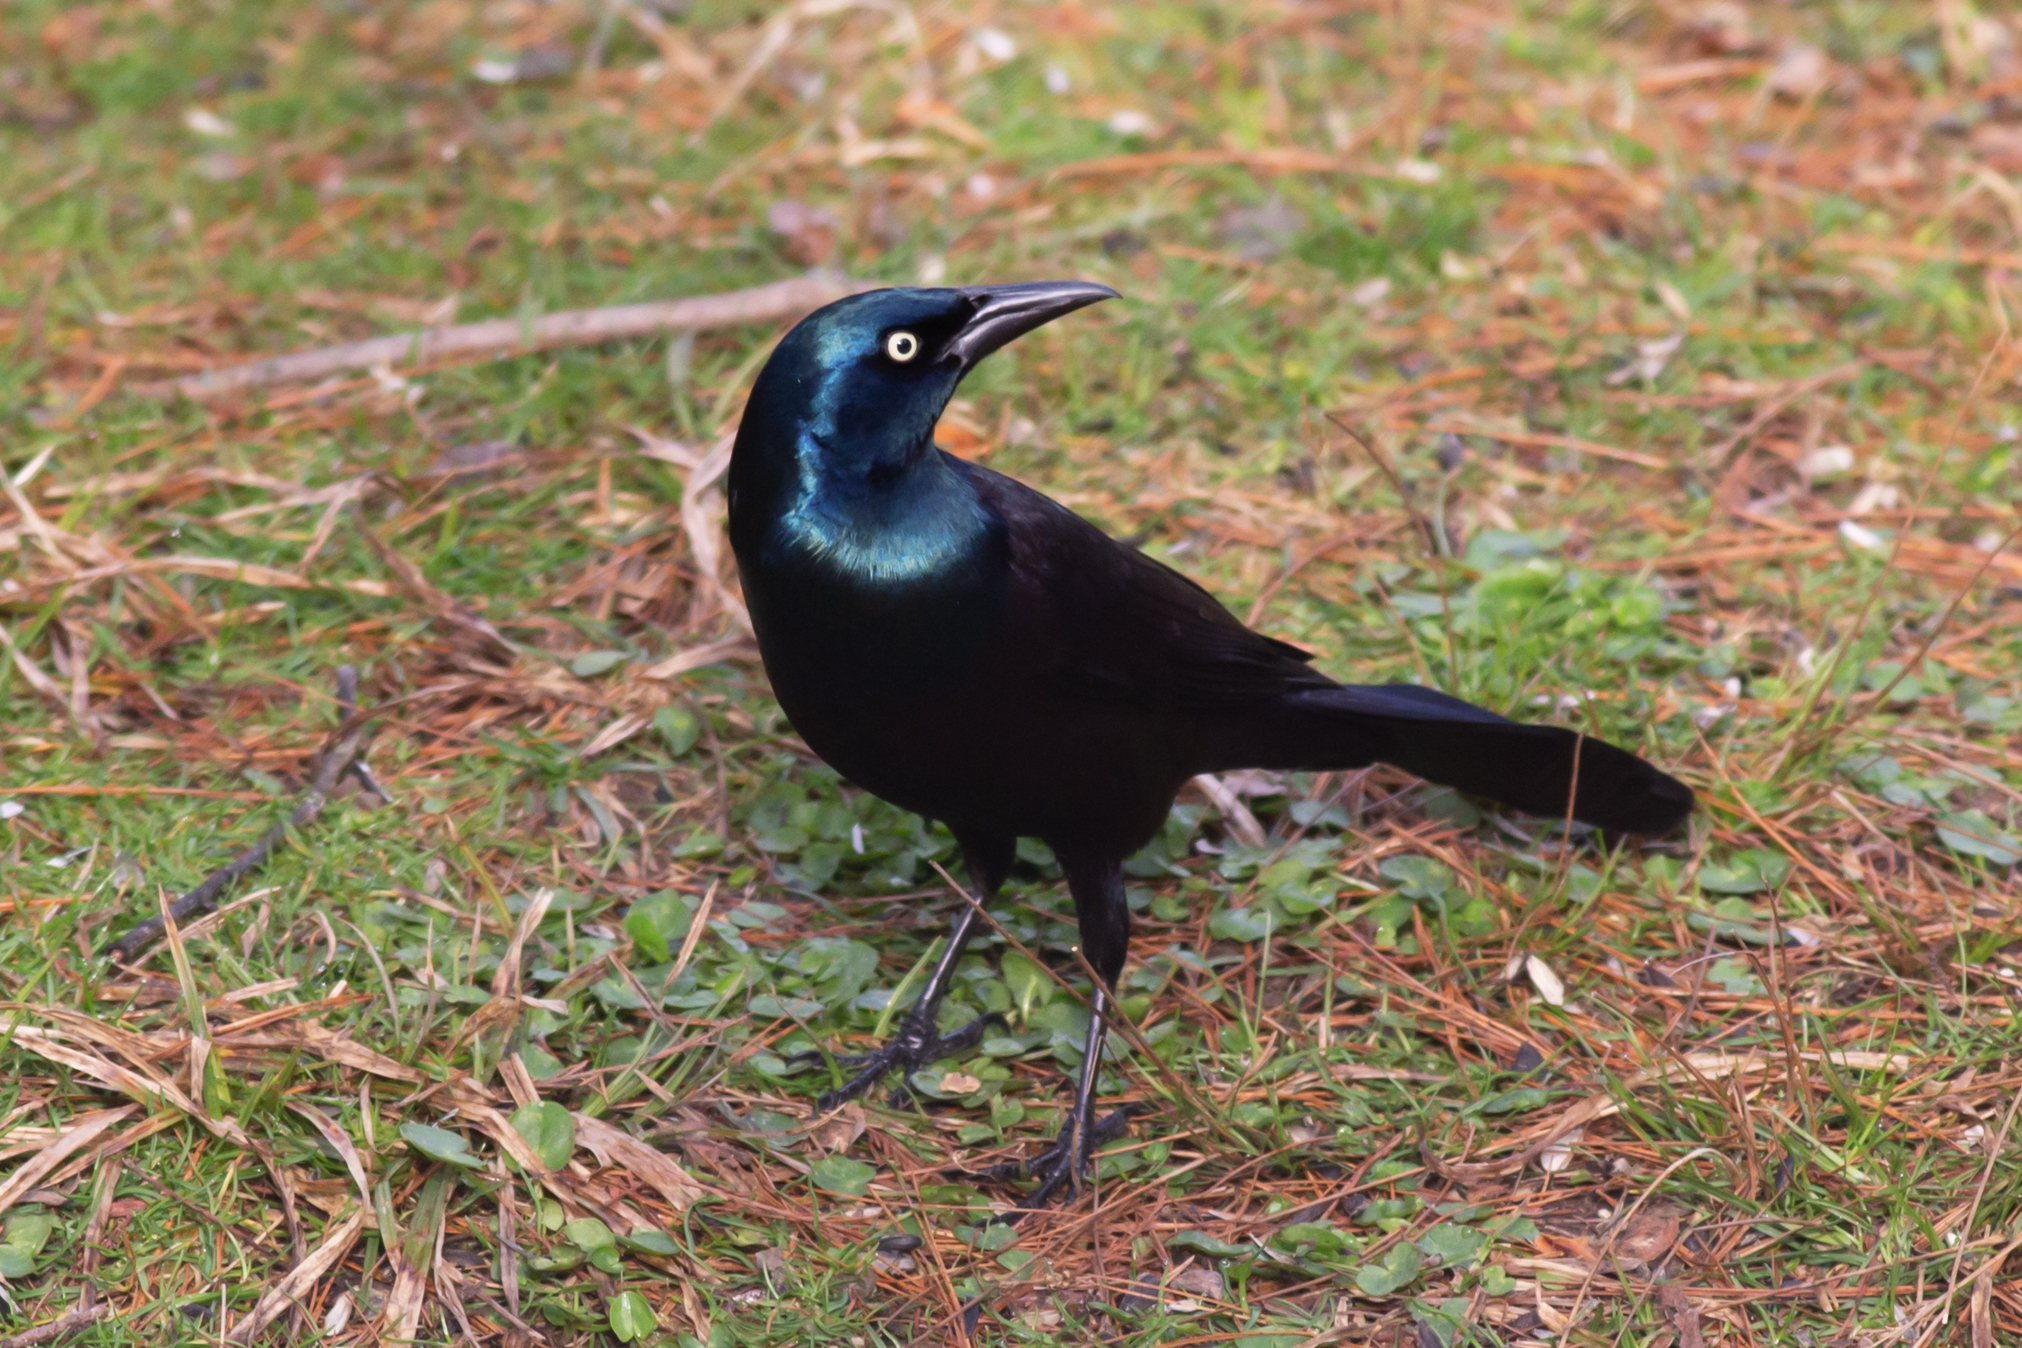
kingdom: Animalia
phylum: Chordata
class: Aves
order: Passeriformes
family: Icteridae
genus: Quiscalus
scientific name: Quiscalus quiscula
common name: Common grackle
